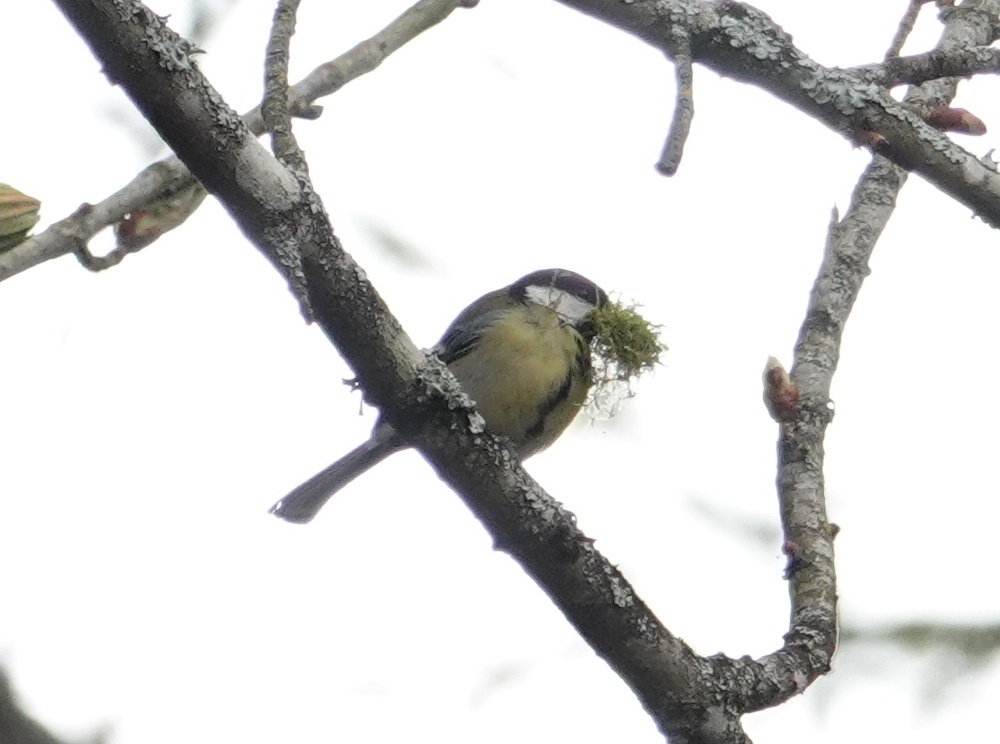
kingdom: Animalia
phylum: Chordata
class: Aves
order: Passeriformes
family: Paridae
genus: Parus
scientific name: Parus major
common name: Great tit
